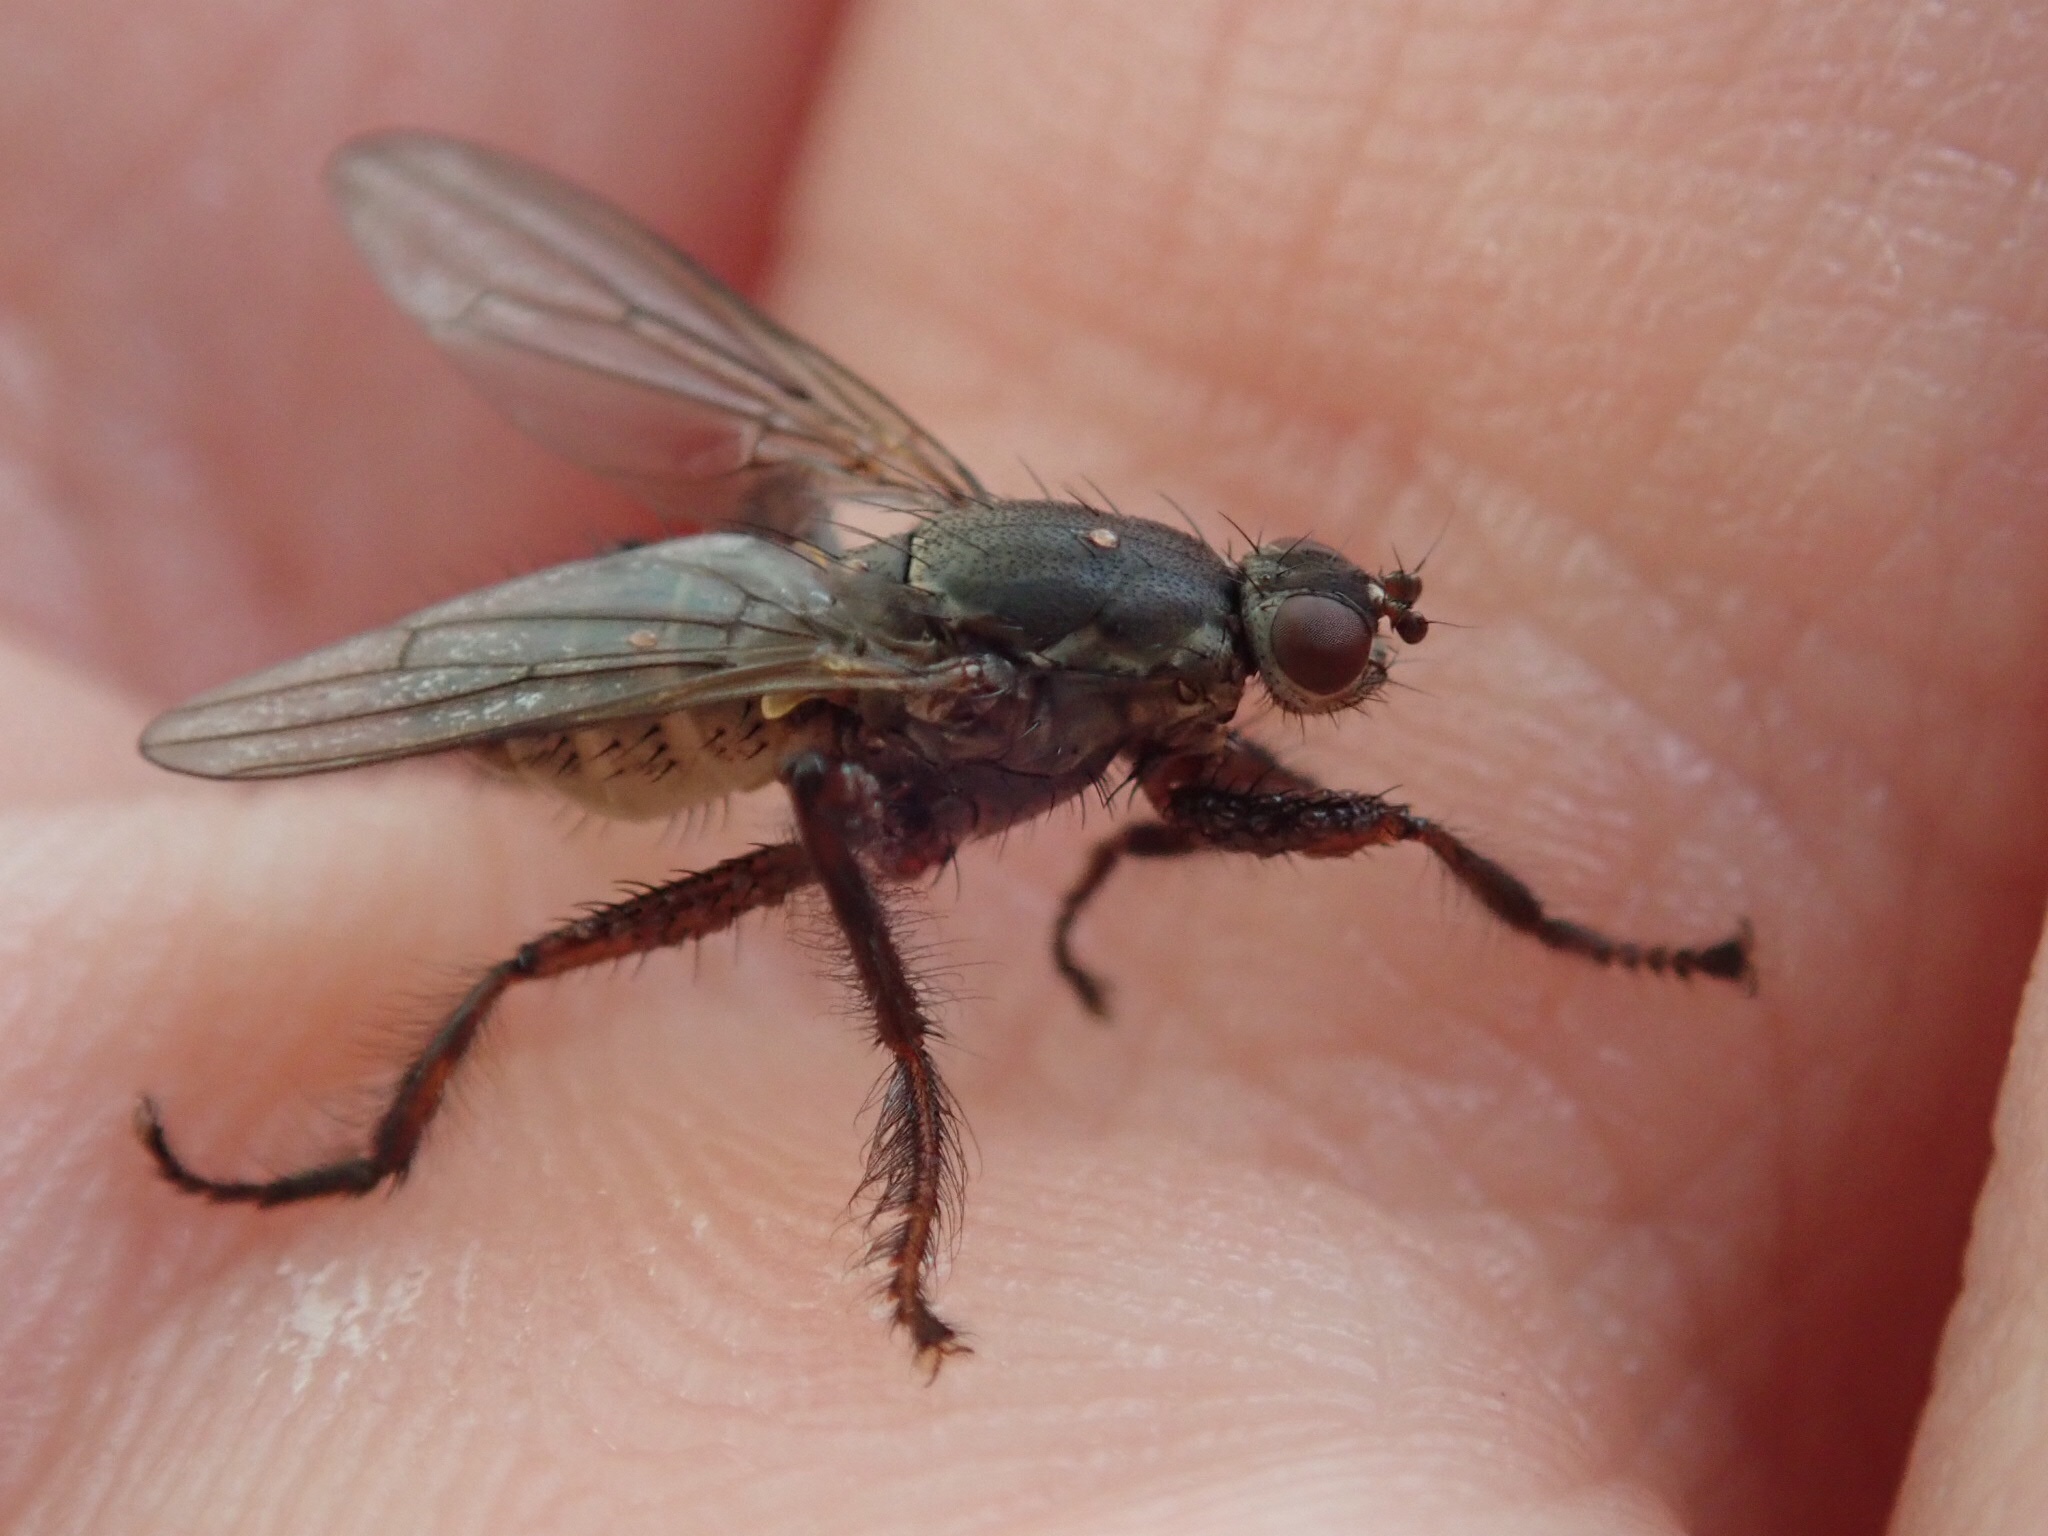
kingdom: Animalia
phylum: Arthropoda
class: Insecta
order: Diptera
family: Coelopidae
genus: Chaetocoelopa
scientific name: Chaetocoelopa littoralis
